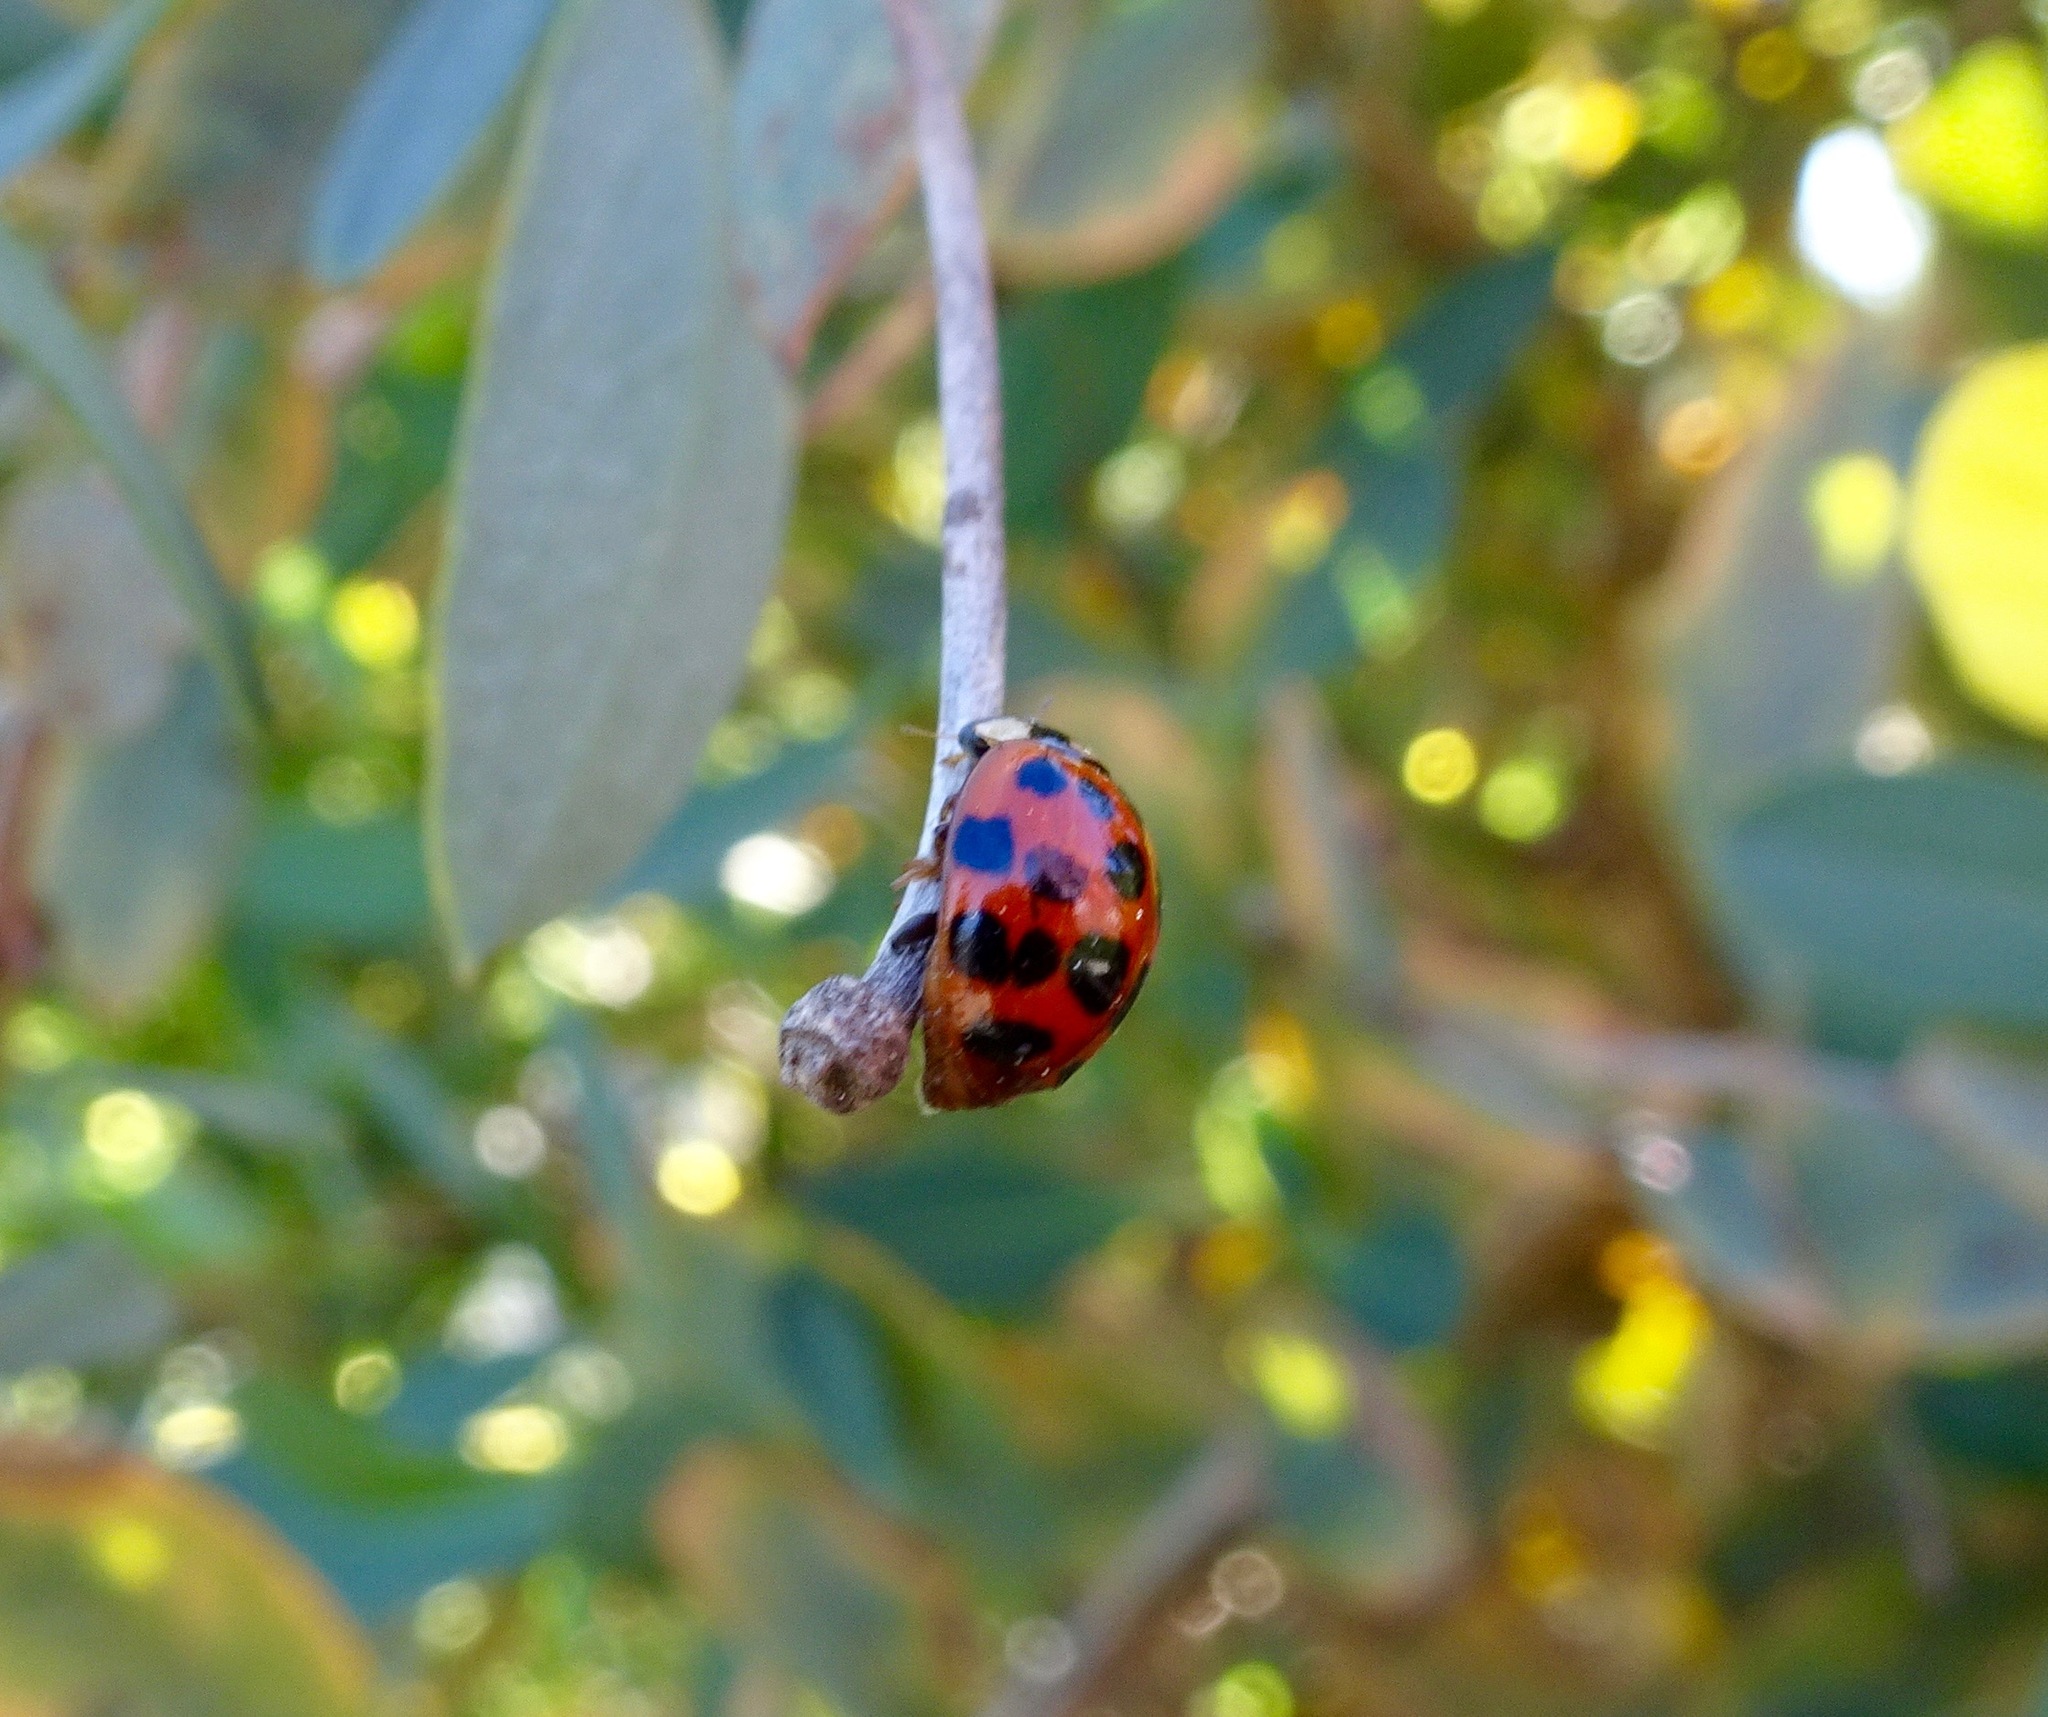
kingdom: Animalia
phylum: Arthropoda
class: Insecta
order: Coleoptera
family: Coccinellidae
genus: Harmonia
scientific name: Harmonia axyridis
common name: Harlequin ladybird
